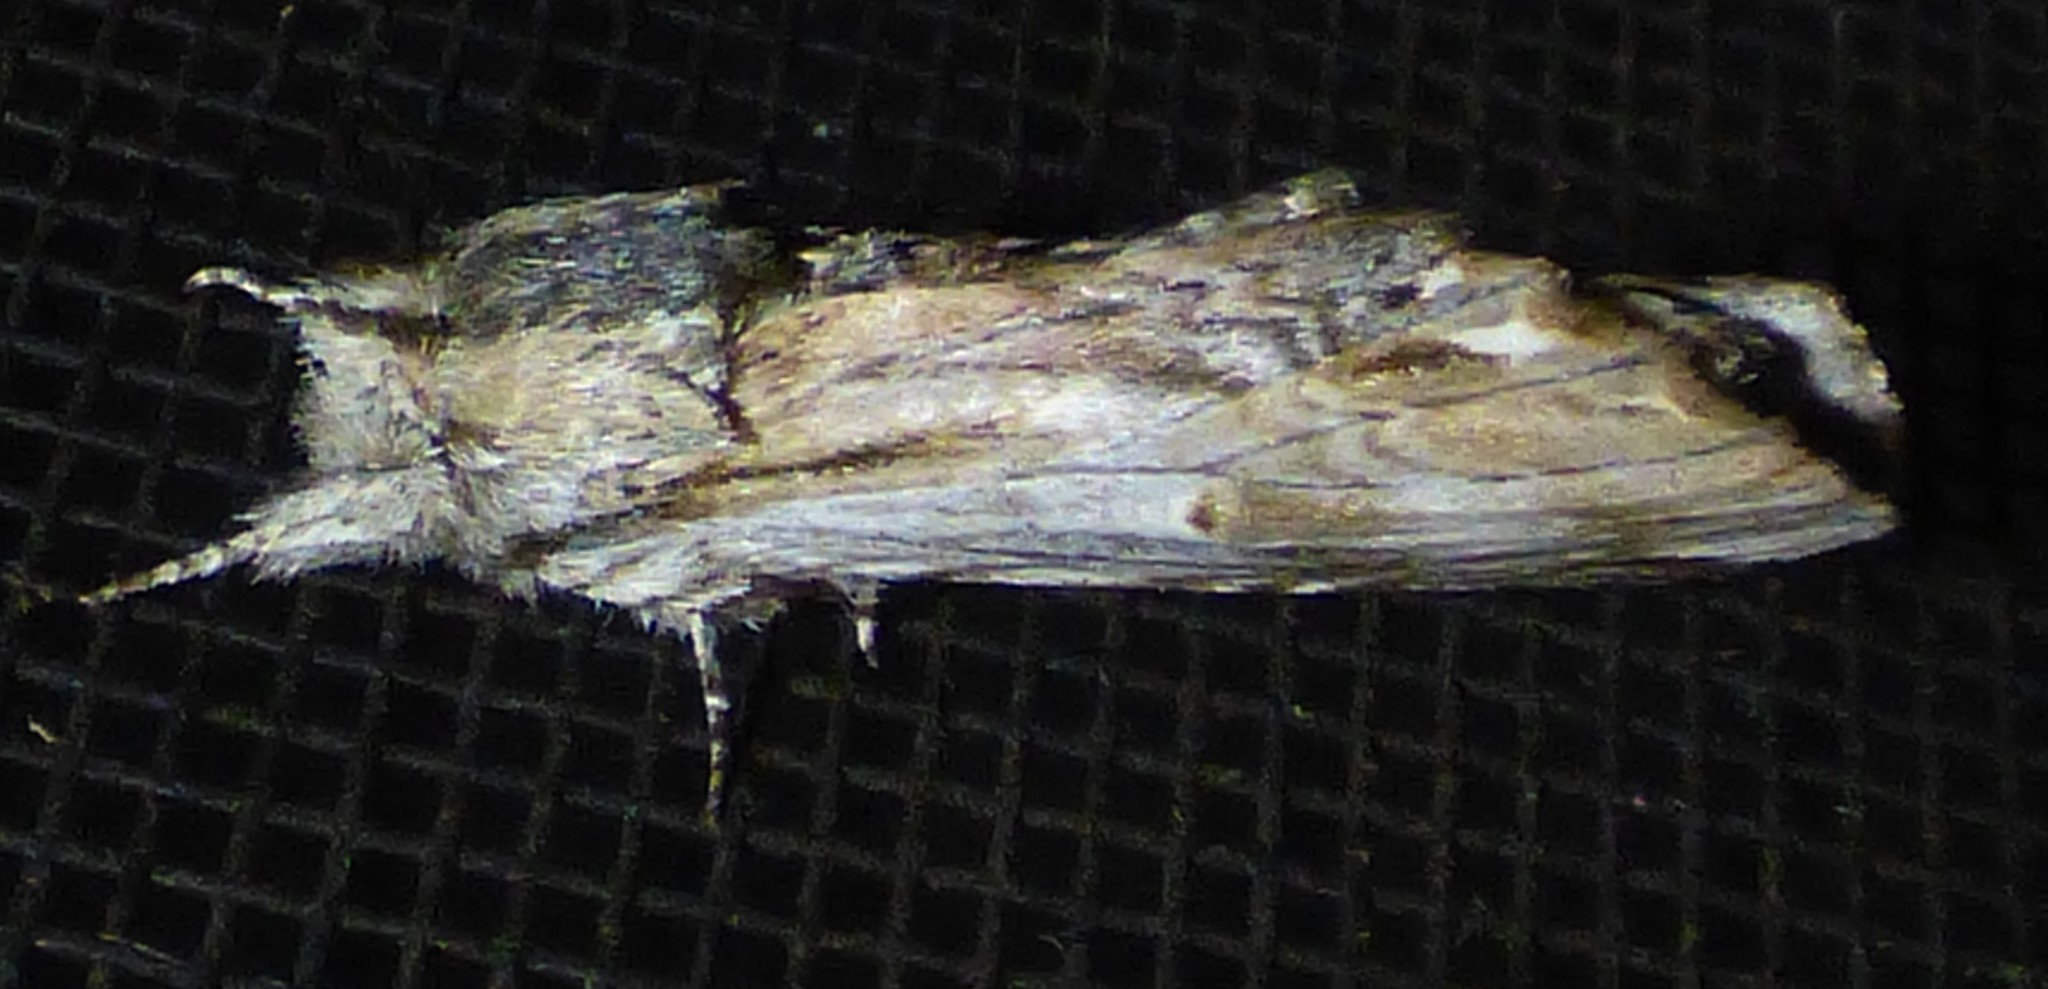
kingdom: Animalia
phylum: Arthropoda
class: Insecta
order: Lepidoptera
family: Notodontidae
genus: Oligocentria
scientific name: Oligocentria Ianassa lignicolor
